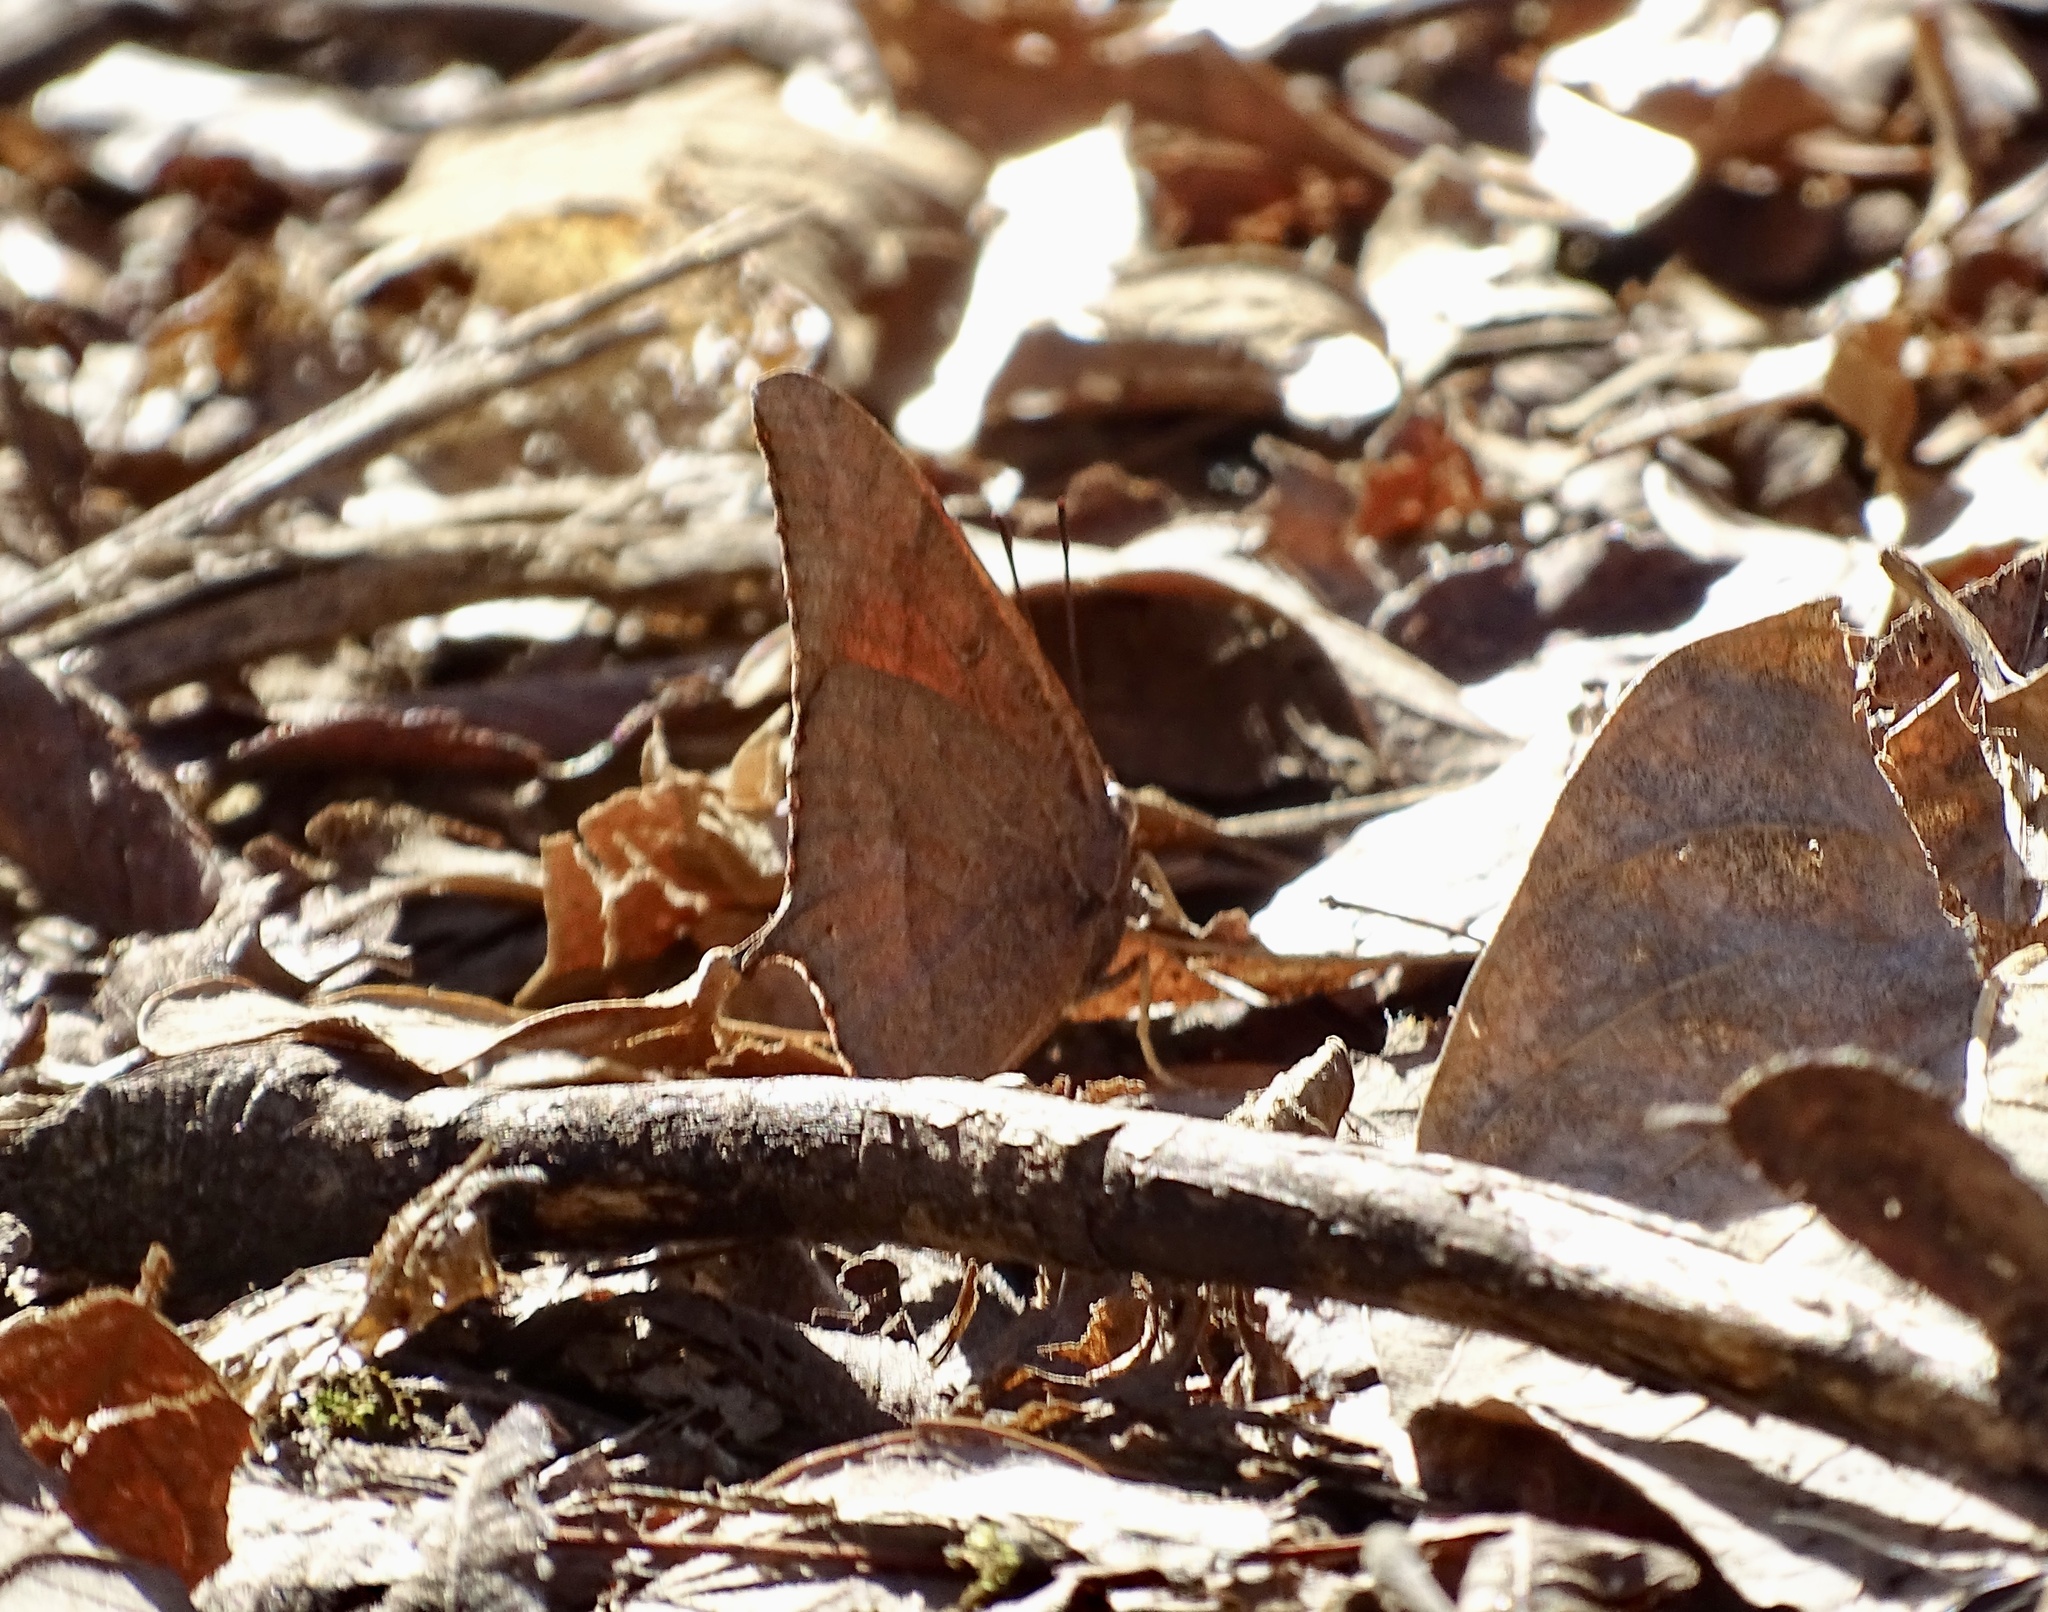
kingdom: Animalia
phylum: Arthropoda
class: Insecta
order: Lepidoptera
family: Nymphalidae
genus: Anaea
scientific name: Anaea andria
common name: Goatweed leafwing
